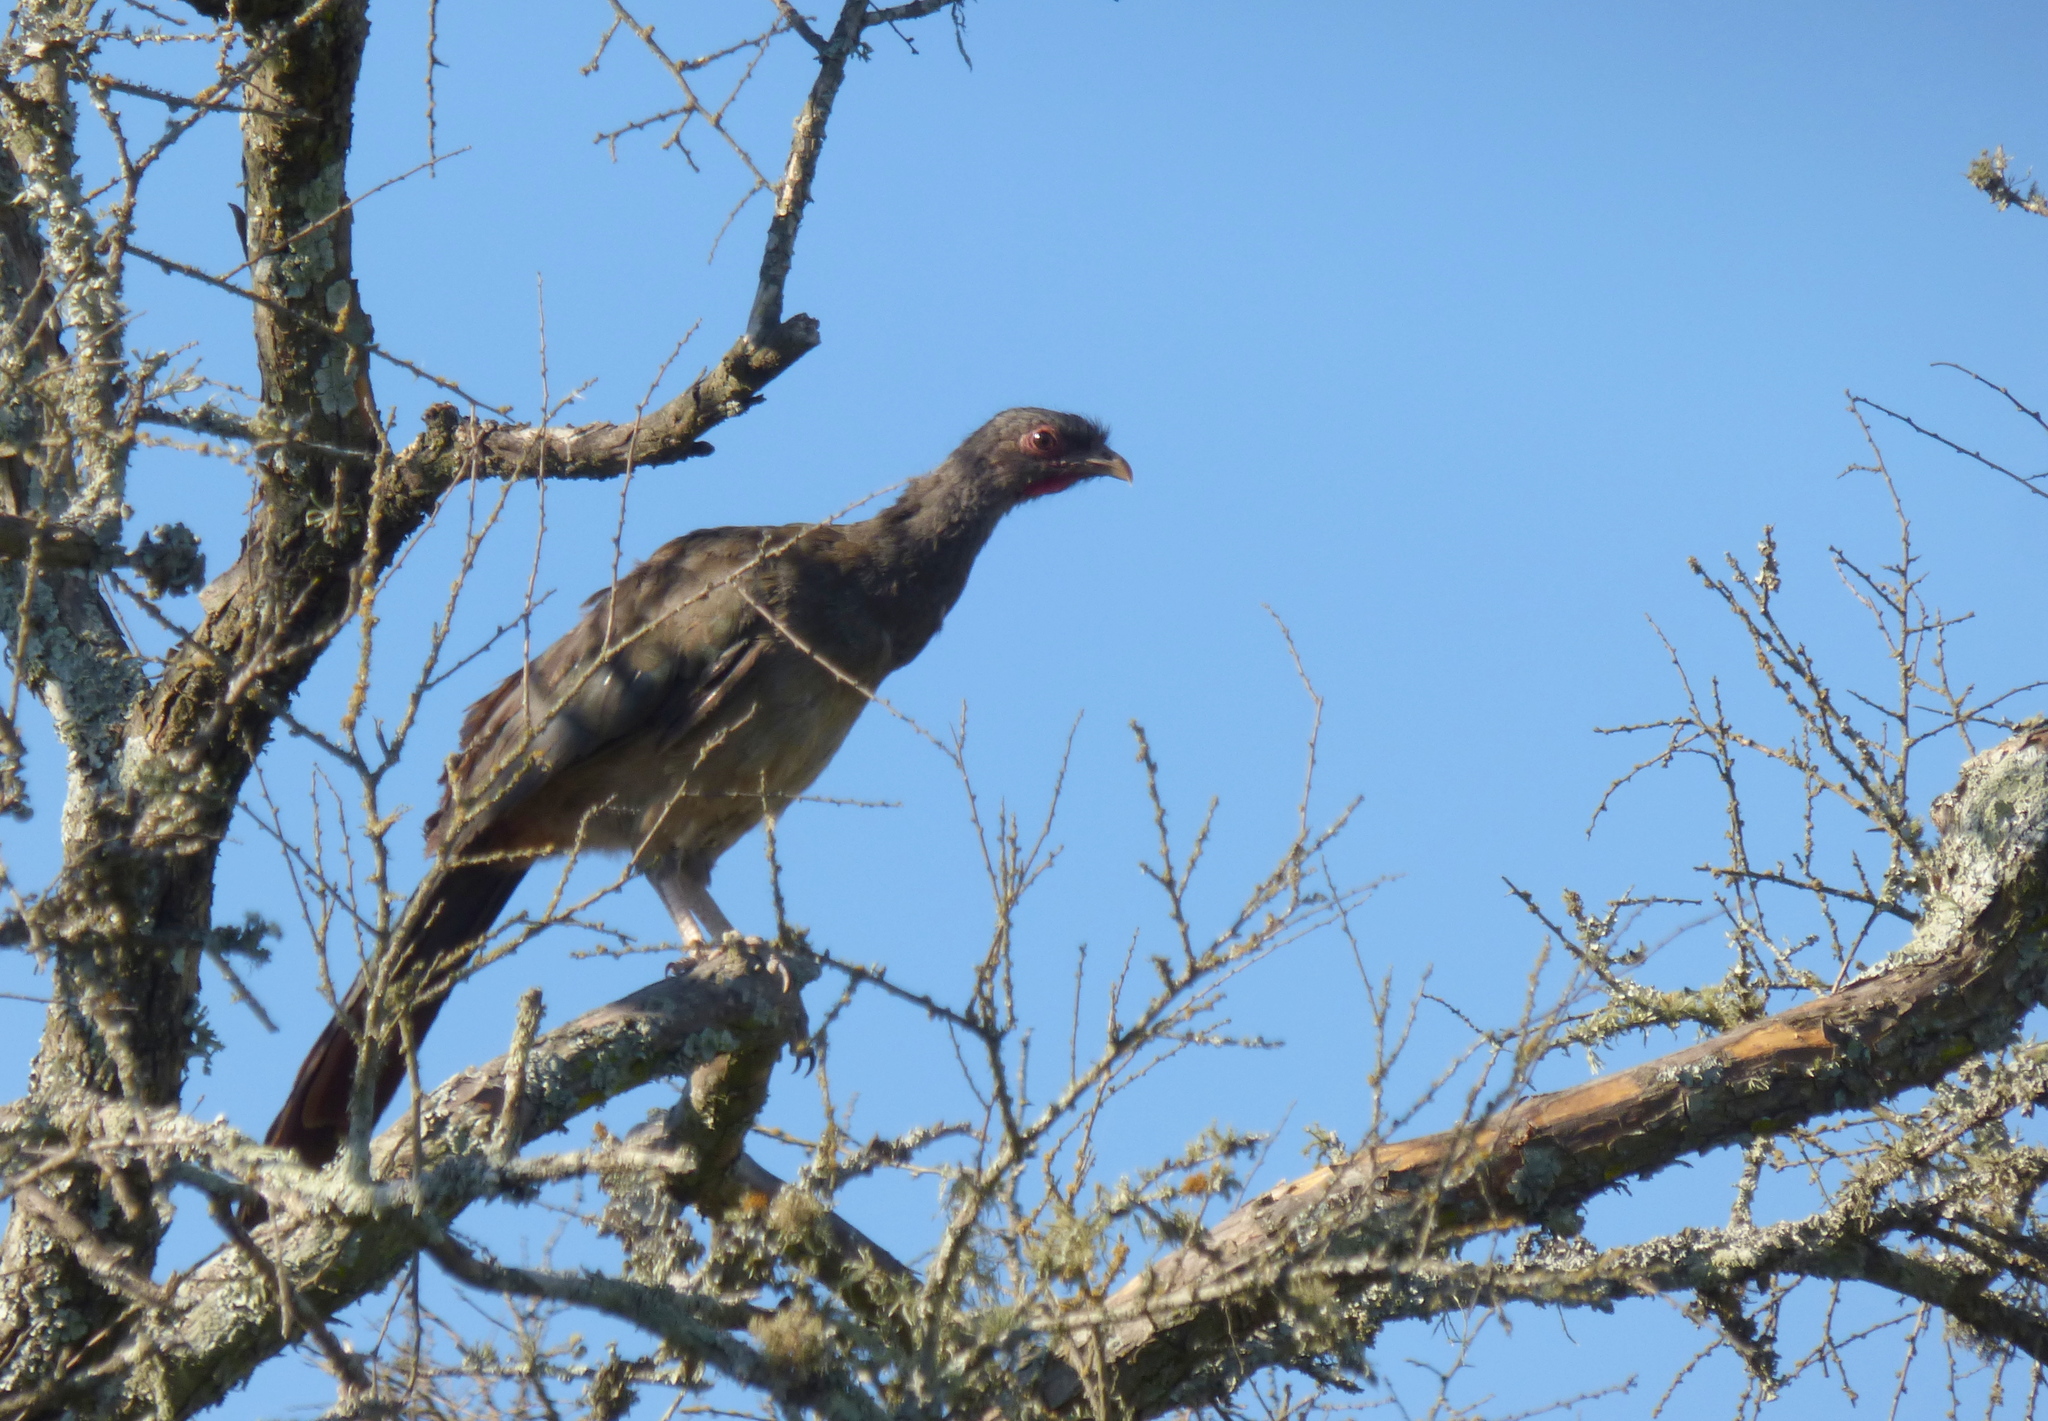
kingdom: Animalia
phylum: Chordata
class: Aves
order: Galliformes
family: Cracidae
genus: Ortalis
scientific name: Ortalis canicollis
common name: Chaco chachalaca
